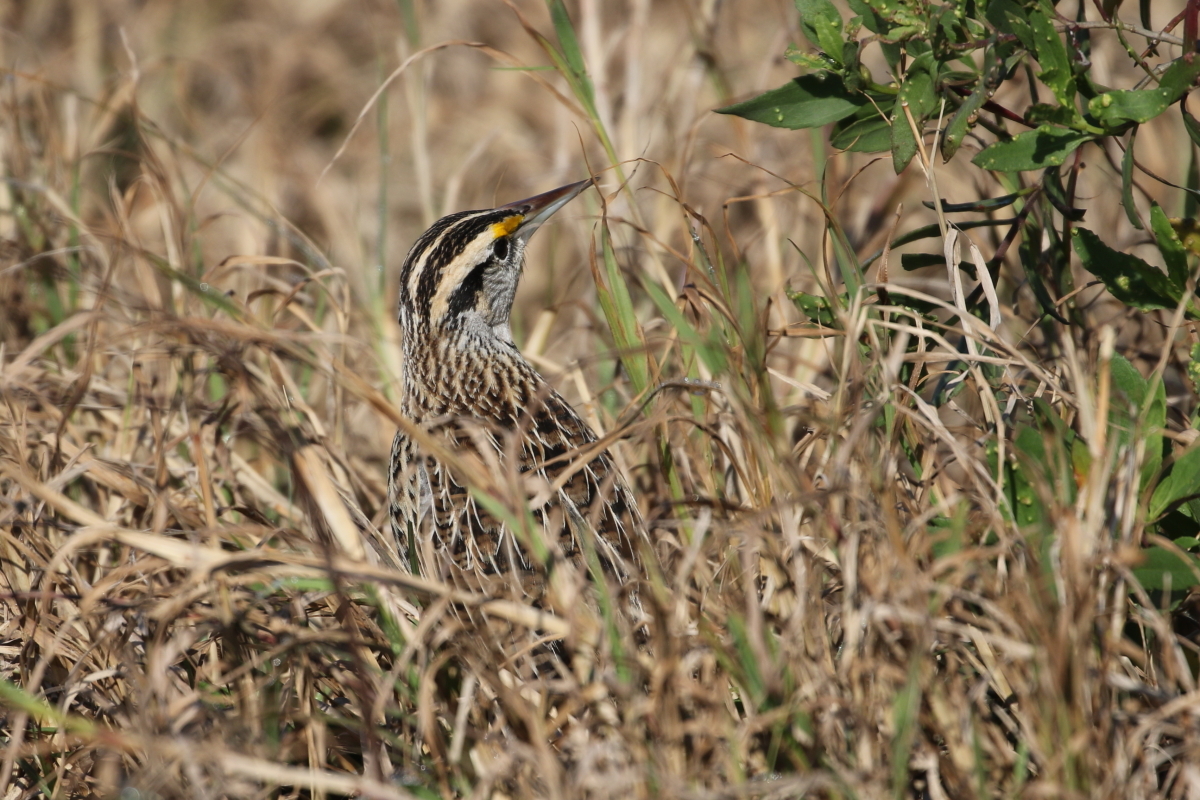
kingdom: Animalia
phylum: Chordata
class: Aves
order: Passeriformes
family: Icteridae
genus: Sturnella
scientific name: Sturnella magna
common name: Eastern meadowlark
